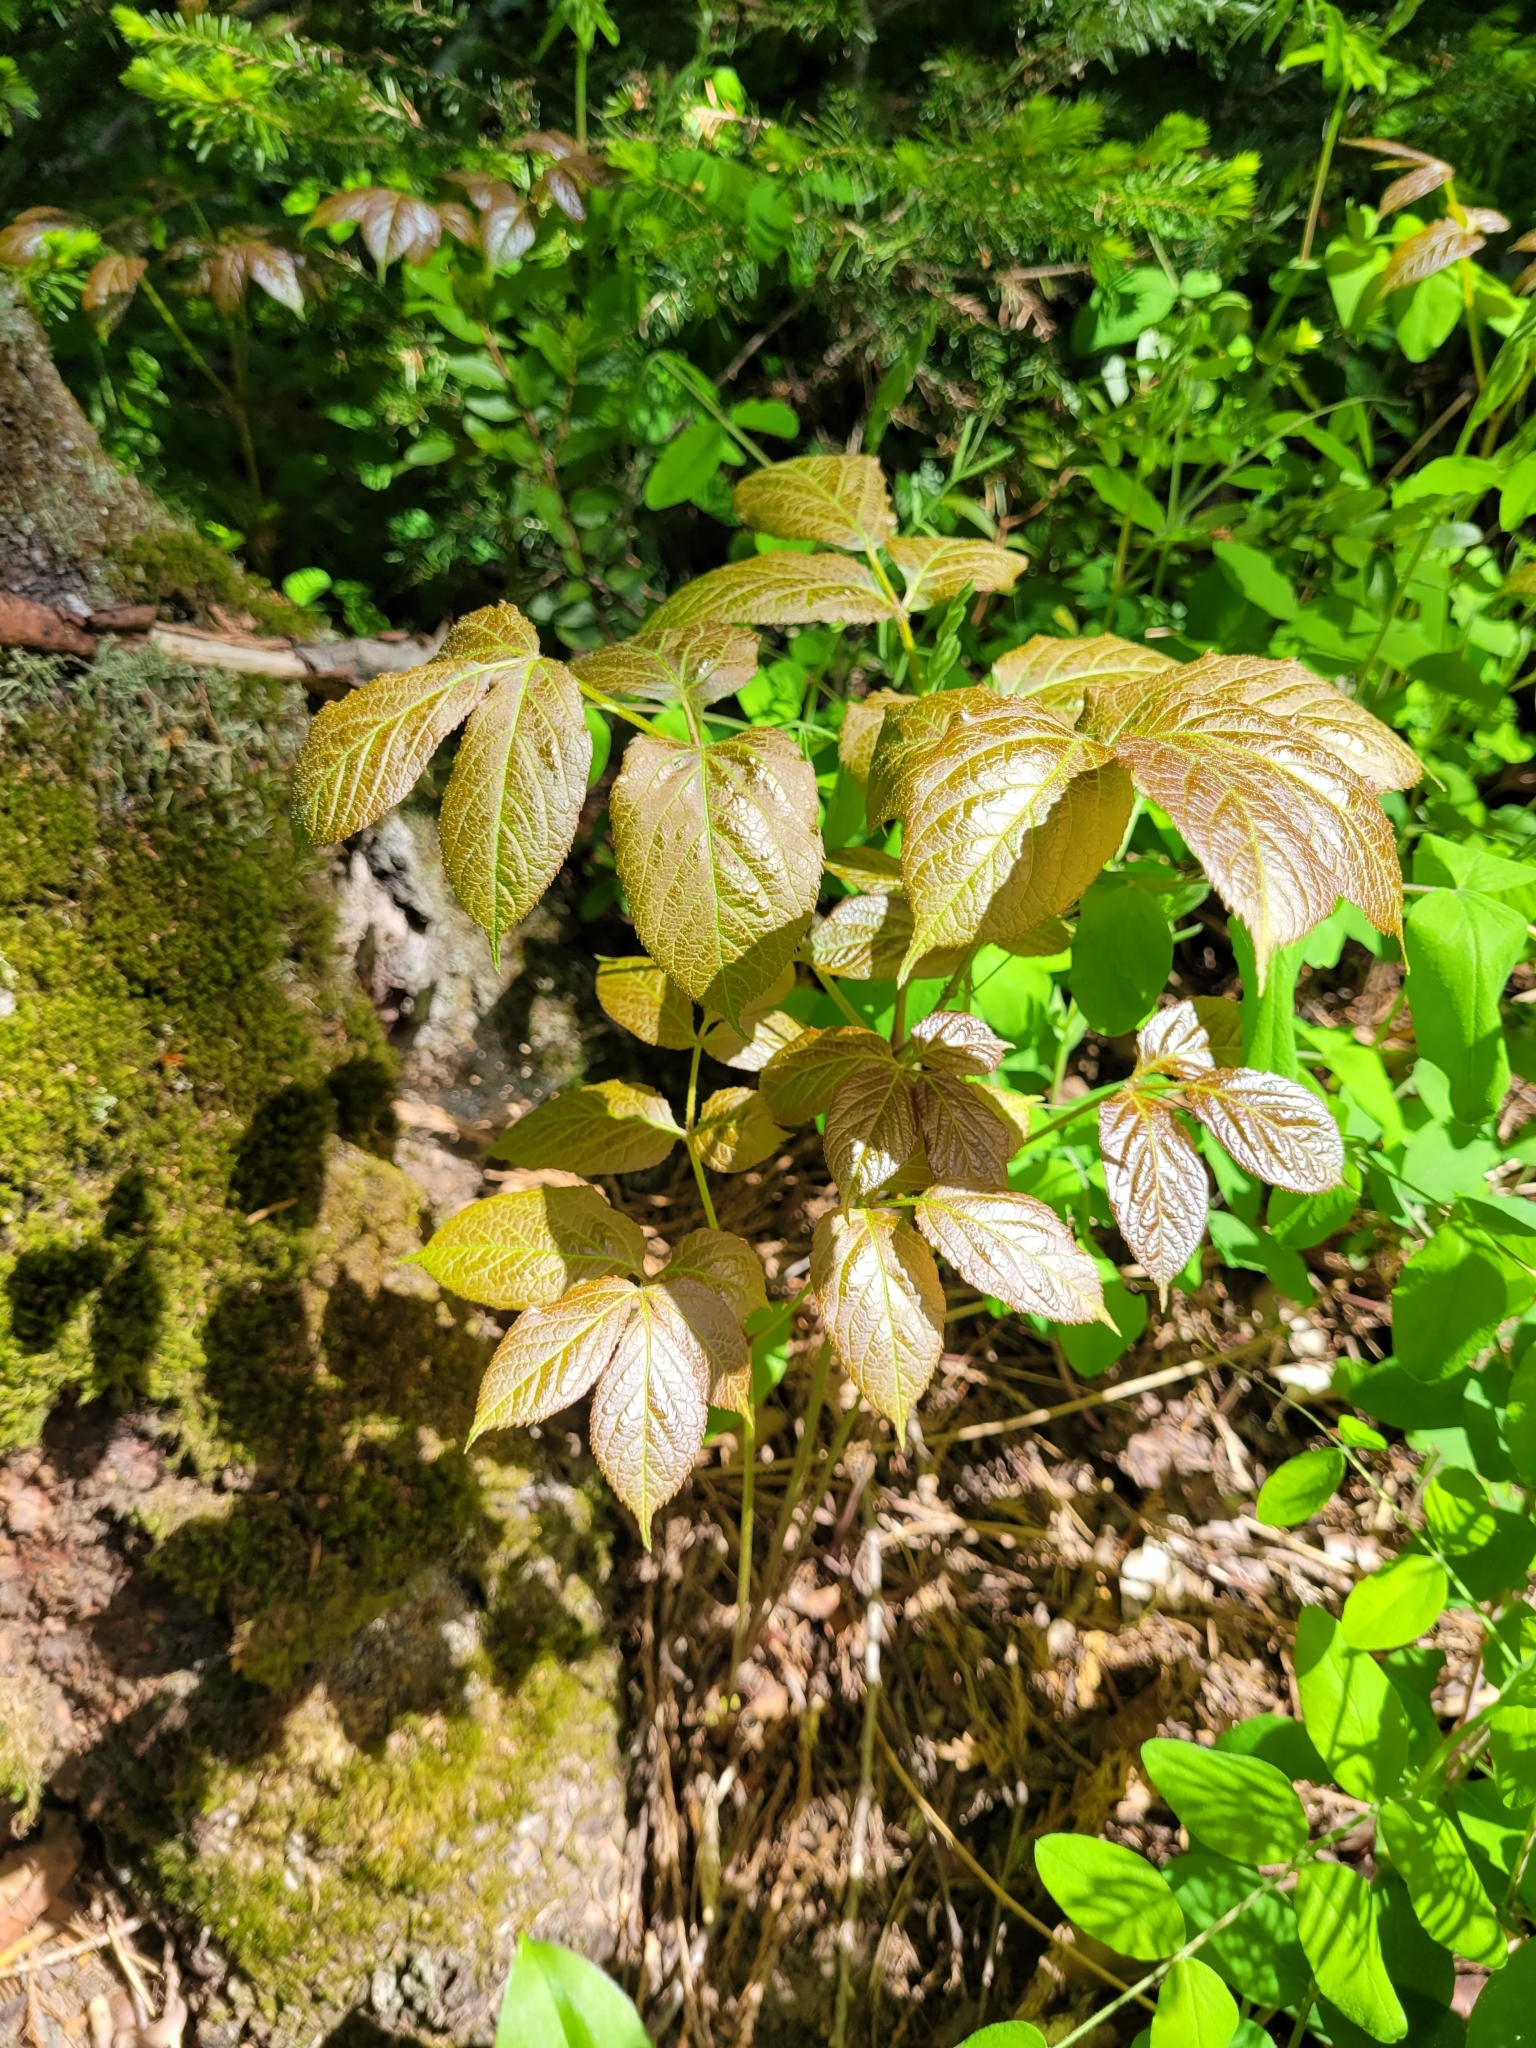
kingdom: Plantae
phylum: Tracheophyta
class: Magnoliopsida
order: Apiales
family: Araliaceae
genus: Aralia
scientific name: Aralia nudicaulis
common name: Wild sarsaparilla
